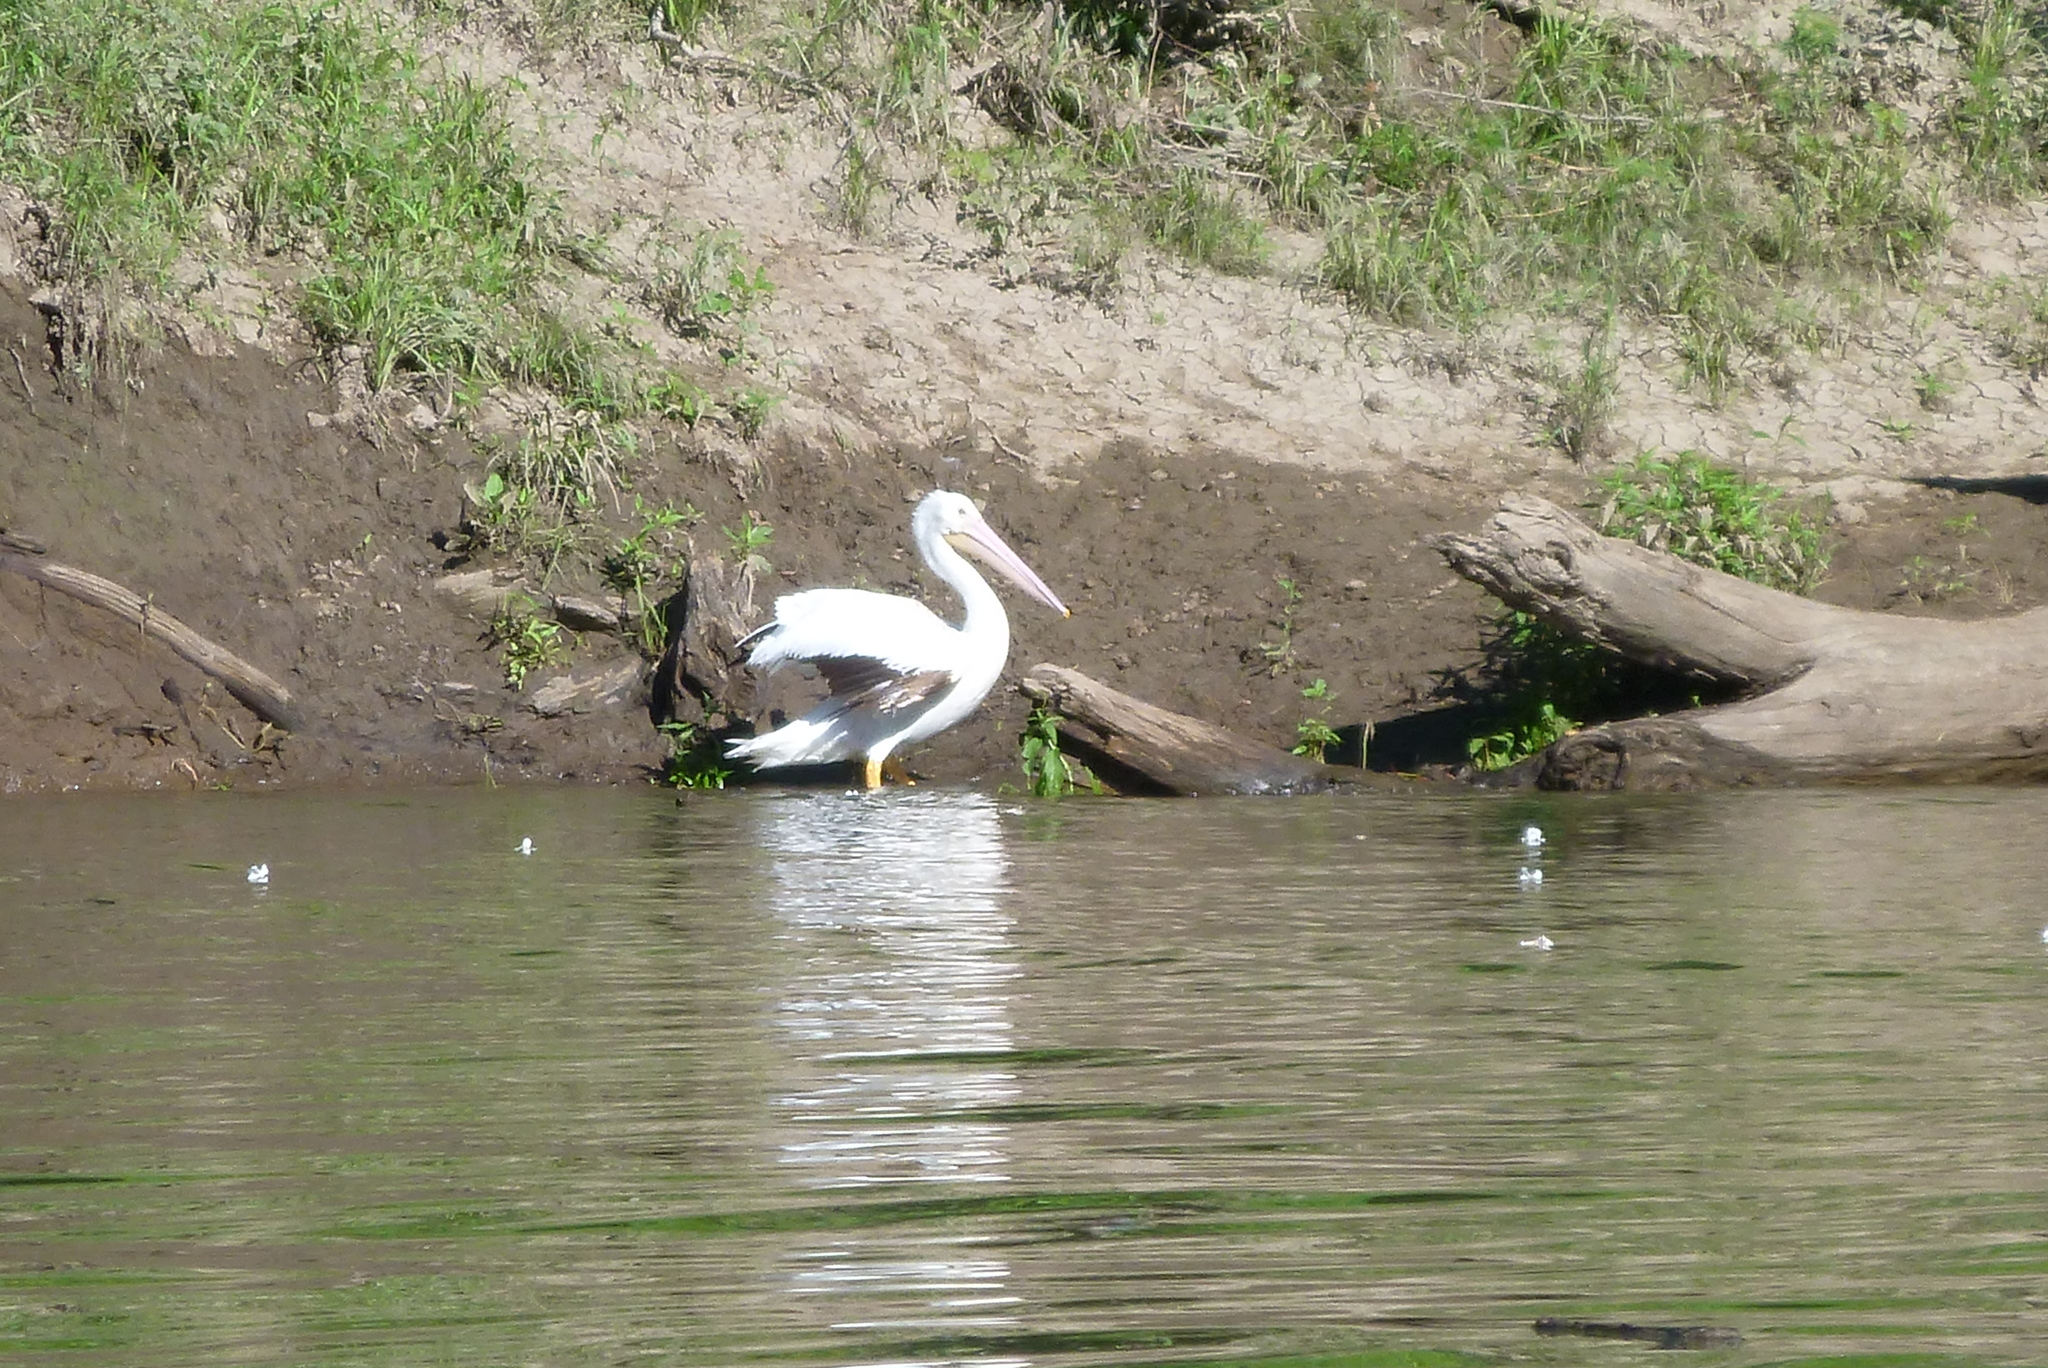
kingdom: Animalia
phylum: Chordata
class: Aves
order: Pelecaniformes
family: Pelecanidae
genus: Pelecanus
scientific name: Pelecanus erythrorhynchos
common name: American white pelican
